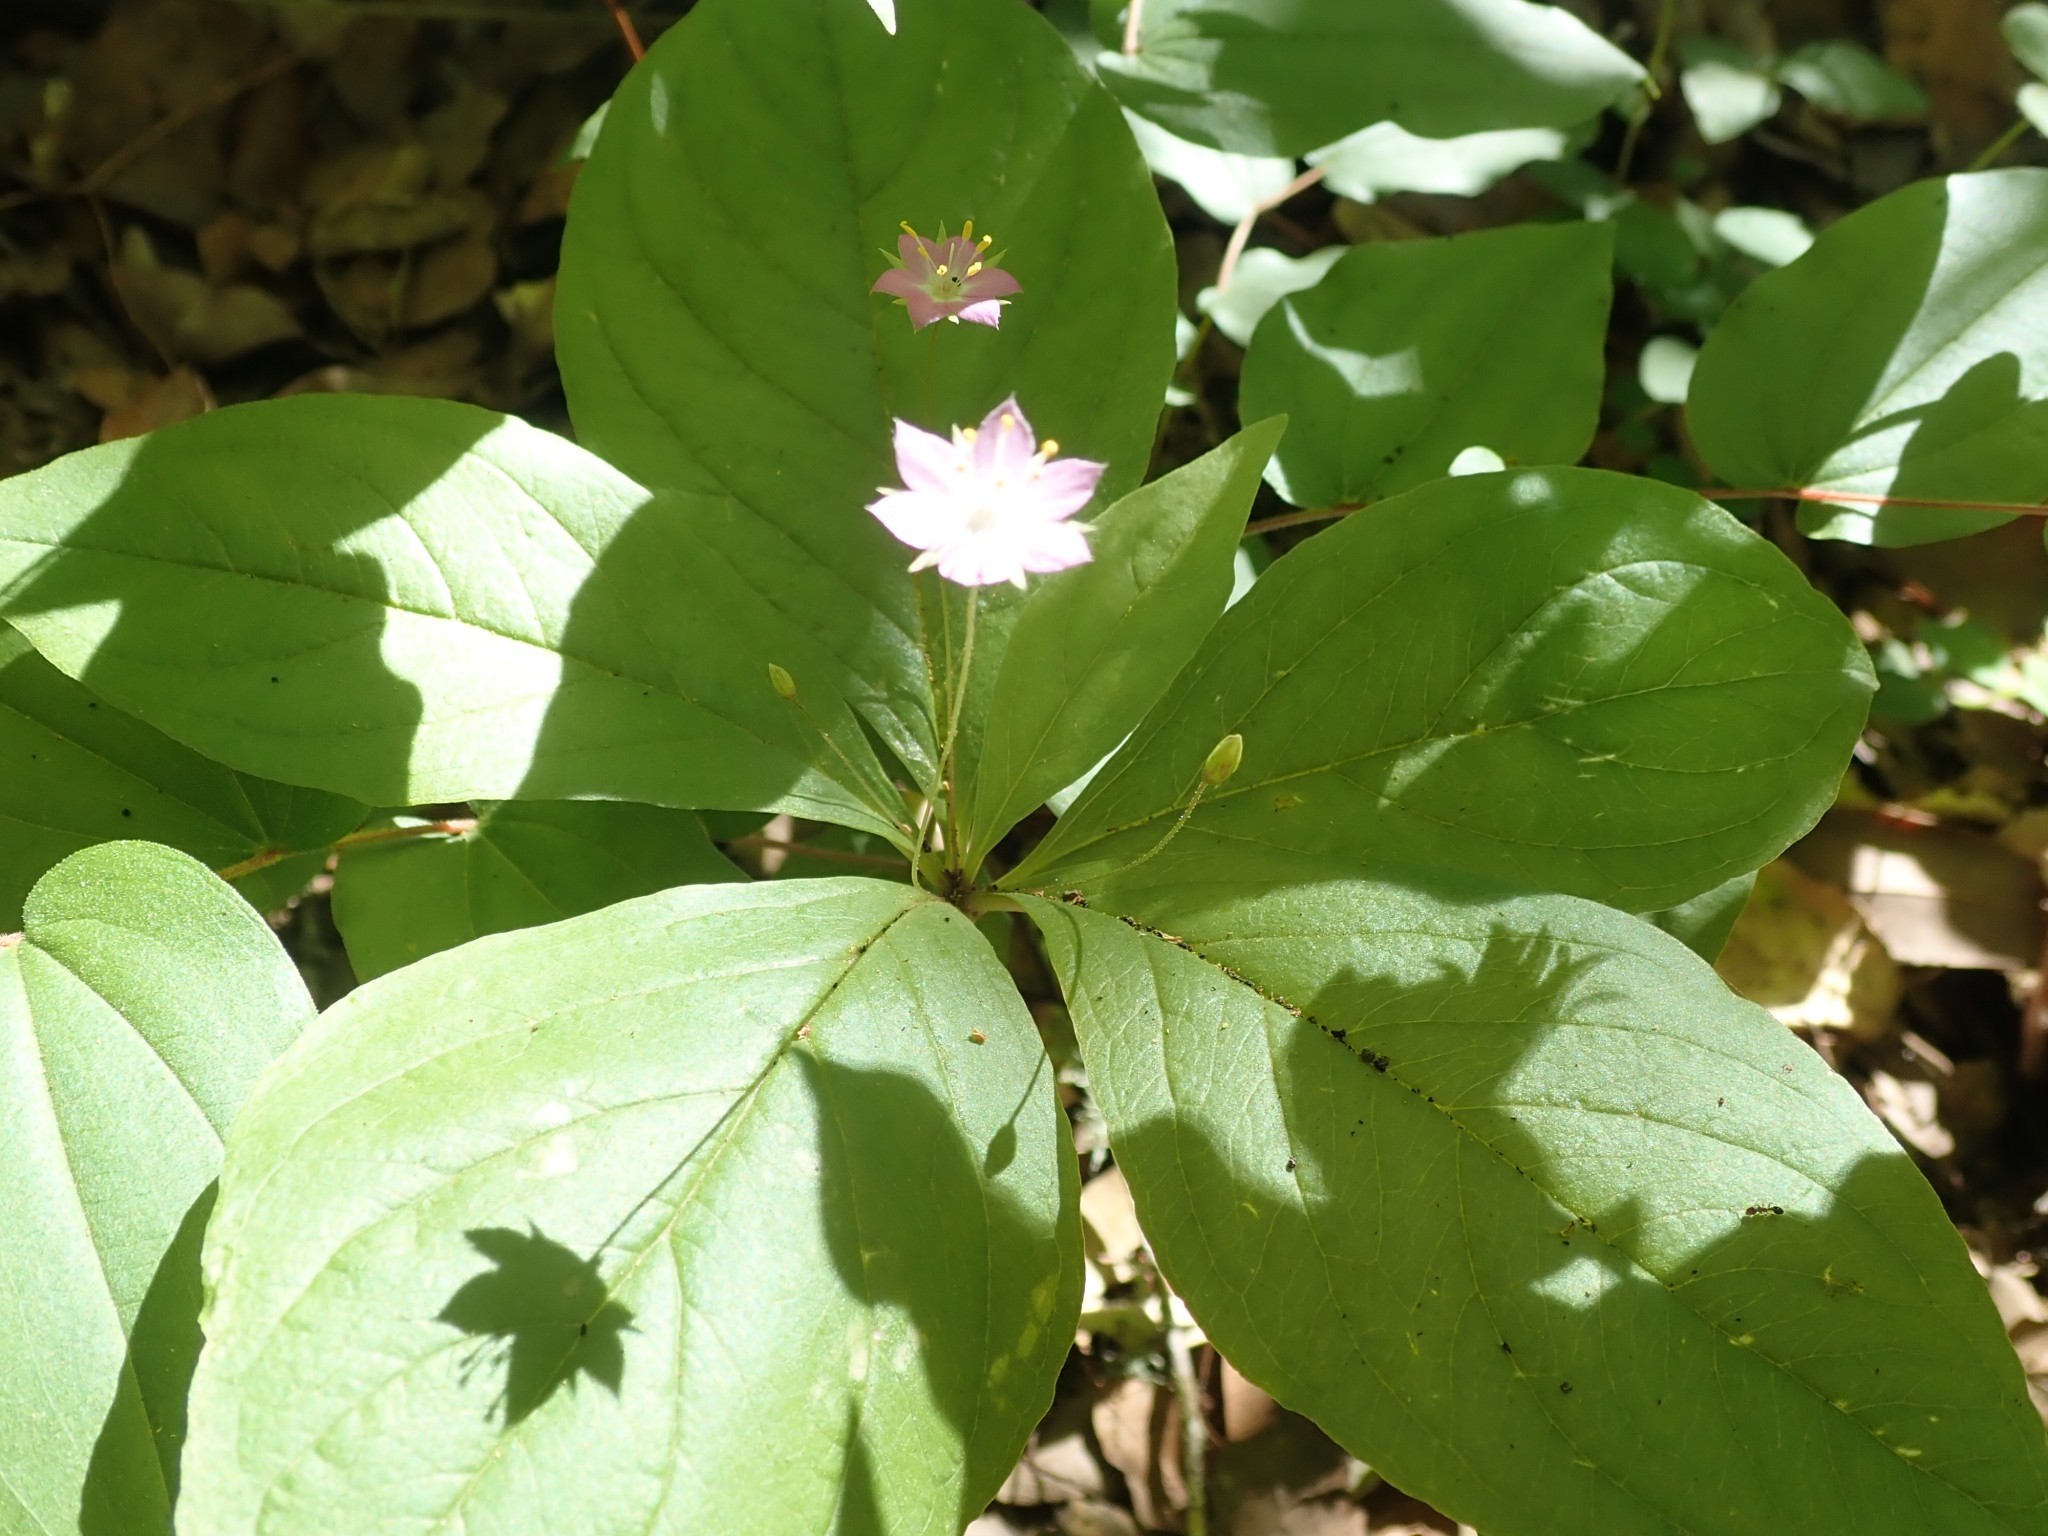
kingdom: Plantae
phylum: Tracheophyta
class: Magnoliopsida
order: Ericales
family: Primulaceae
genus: Lysimachia
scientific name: Lysimachia latifolia
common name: Pacific starflower
